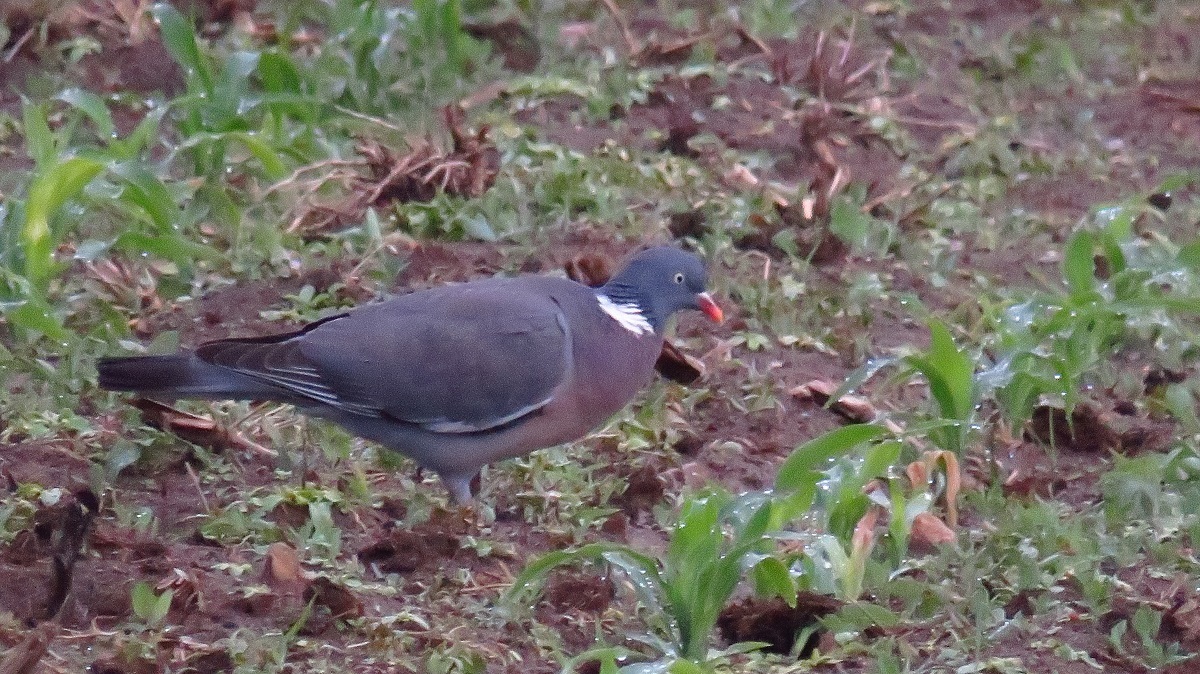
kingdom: Animalia
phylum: Chordata
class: Aves
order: Columbiformes
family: Columbidae
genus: Columba
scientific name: Columba palumbus
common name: Common wood pigeon
